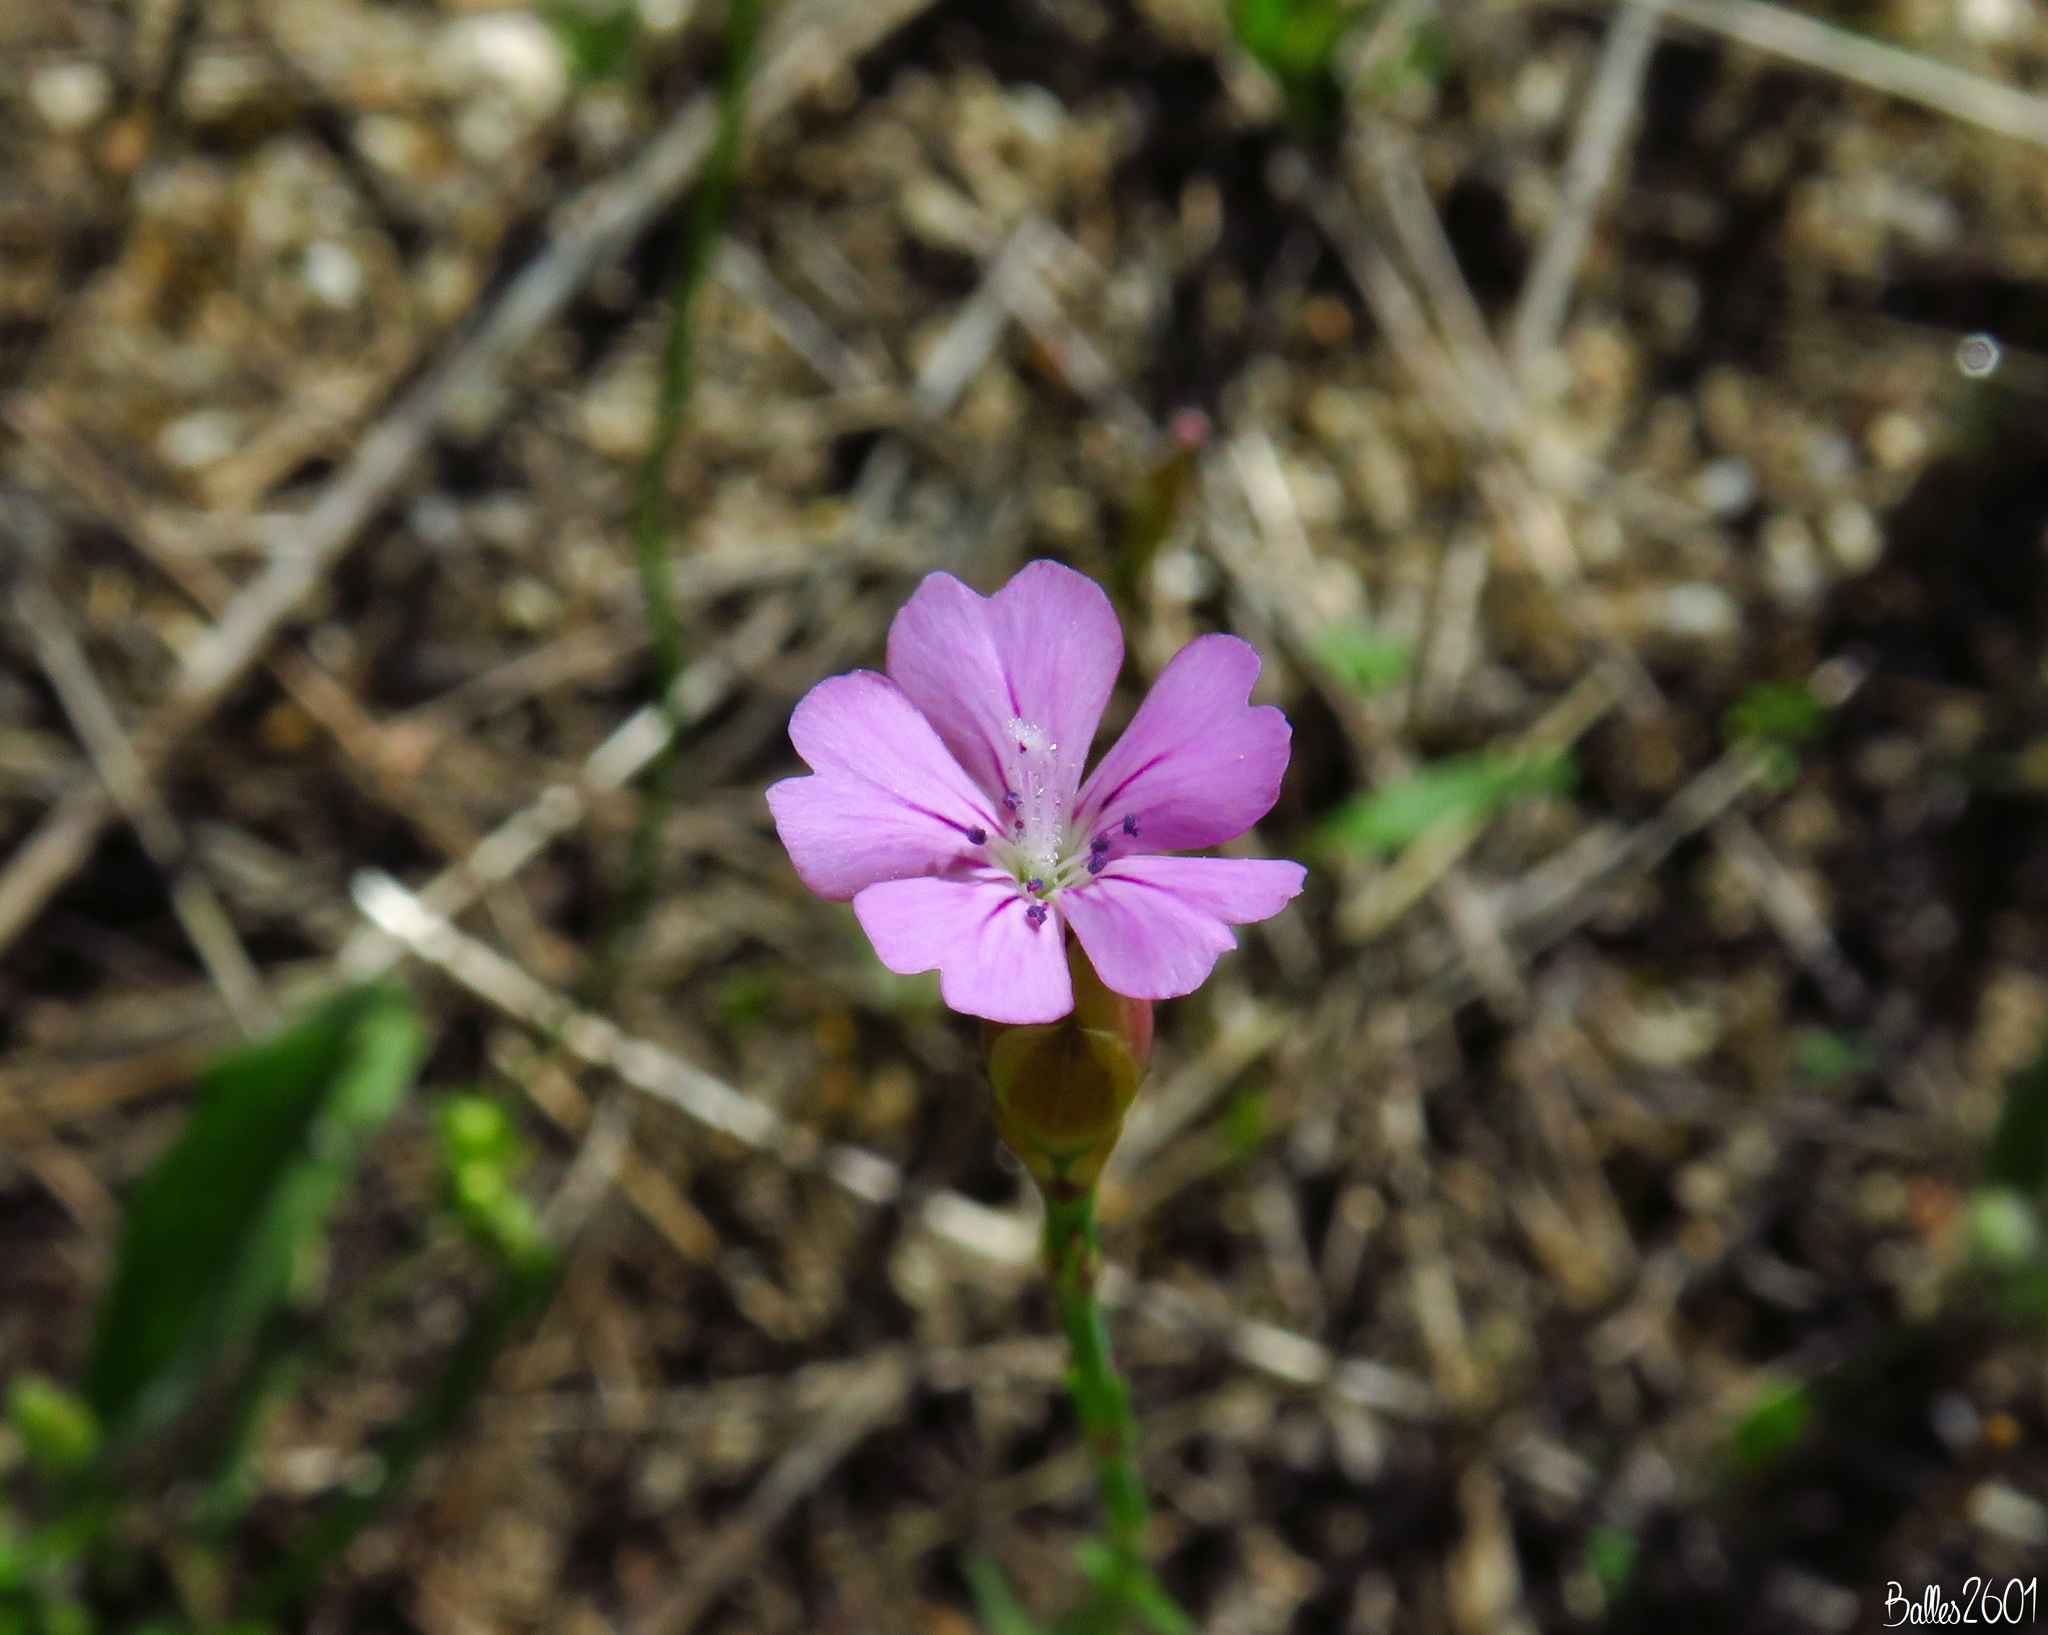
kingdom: Plantae
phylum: Tracheophyta
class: Magnoliopsida
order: Caryophyllales
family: Caryophyllaceae
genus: Petrorhagia
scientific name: Petrorhagia nanteuilii
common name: Proliferous pink
